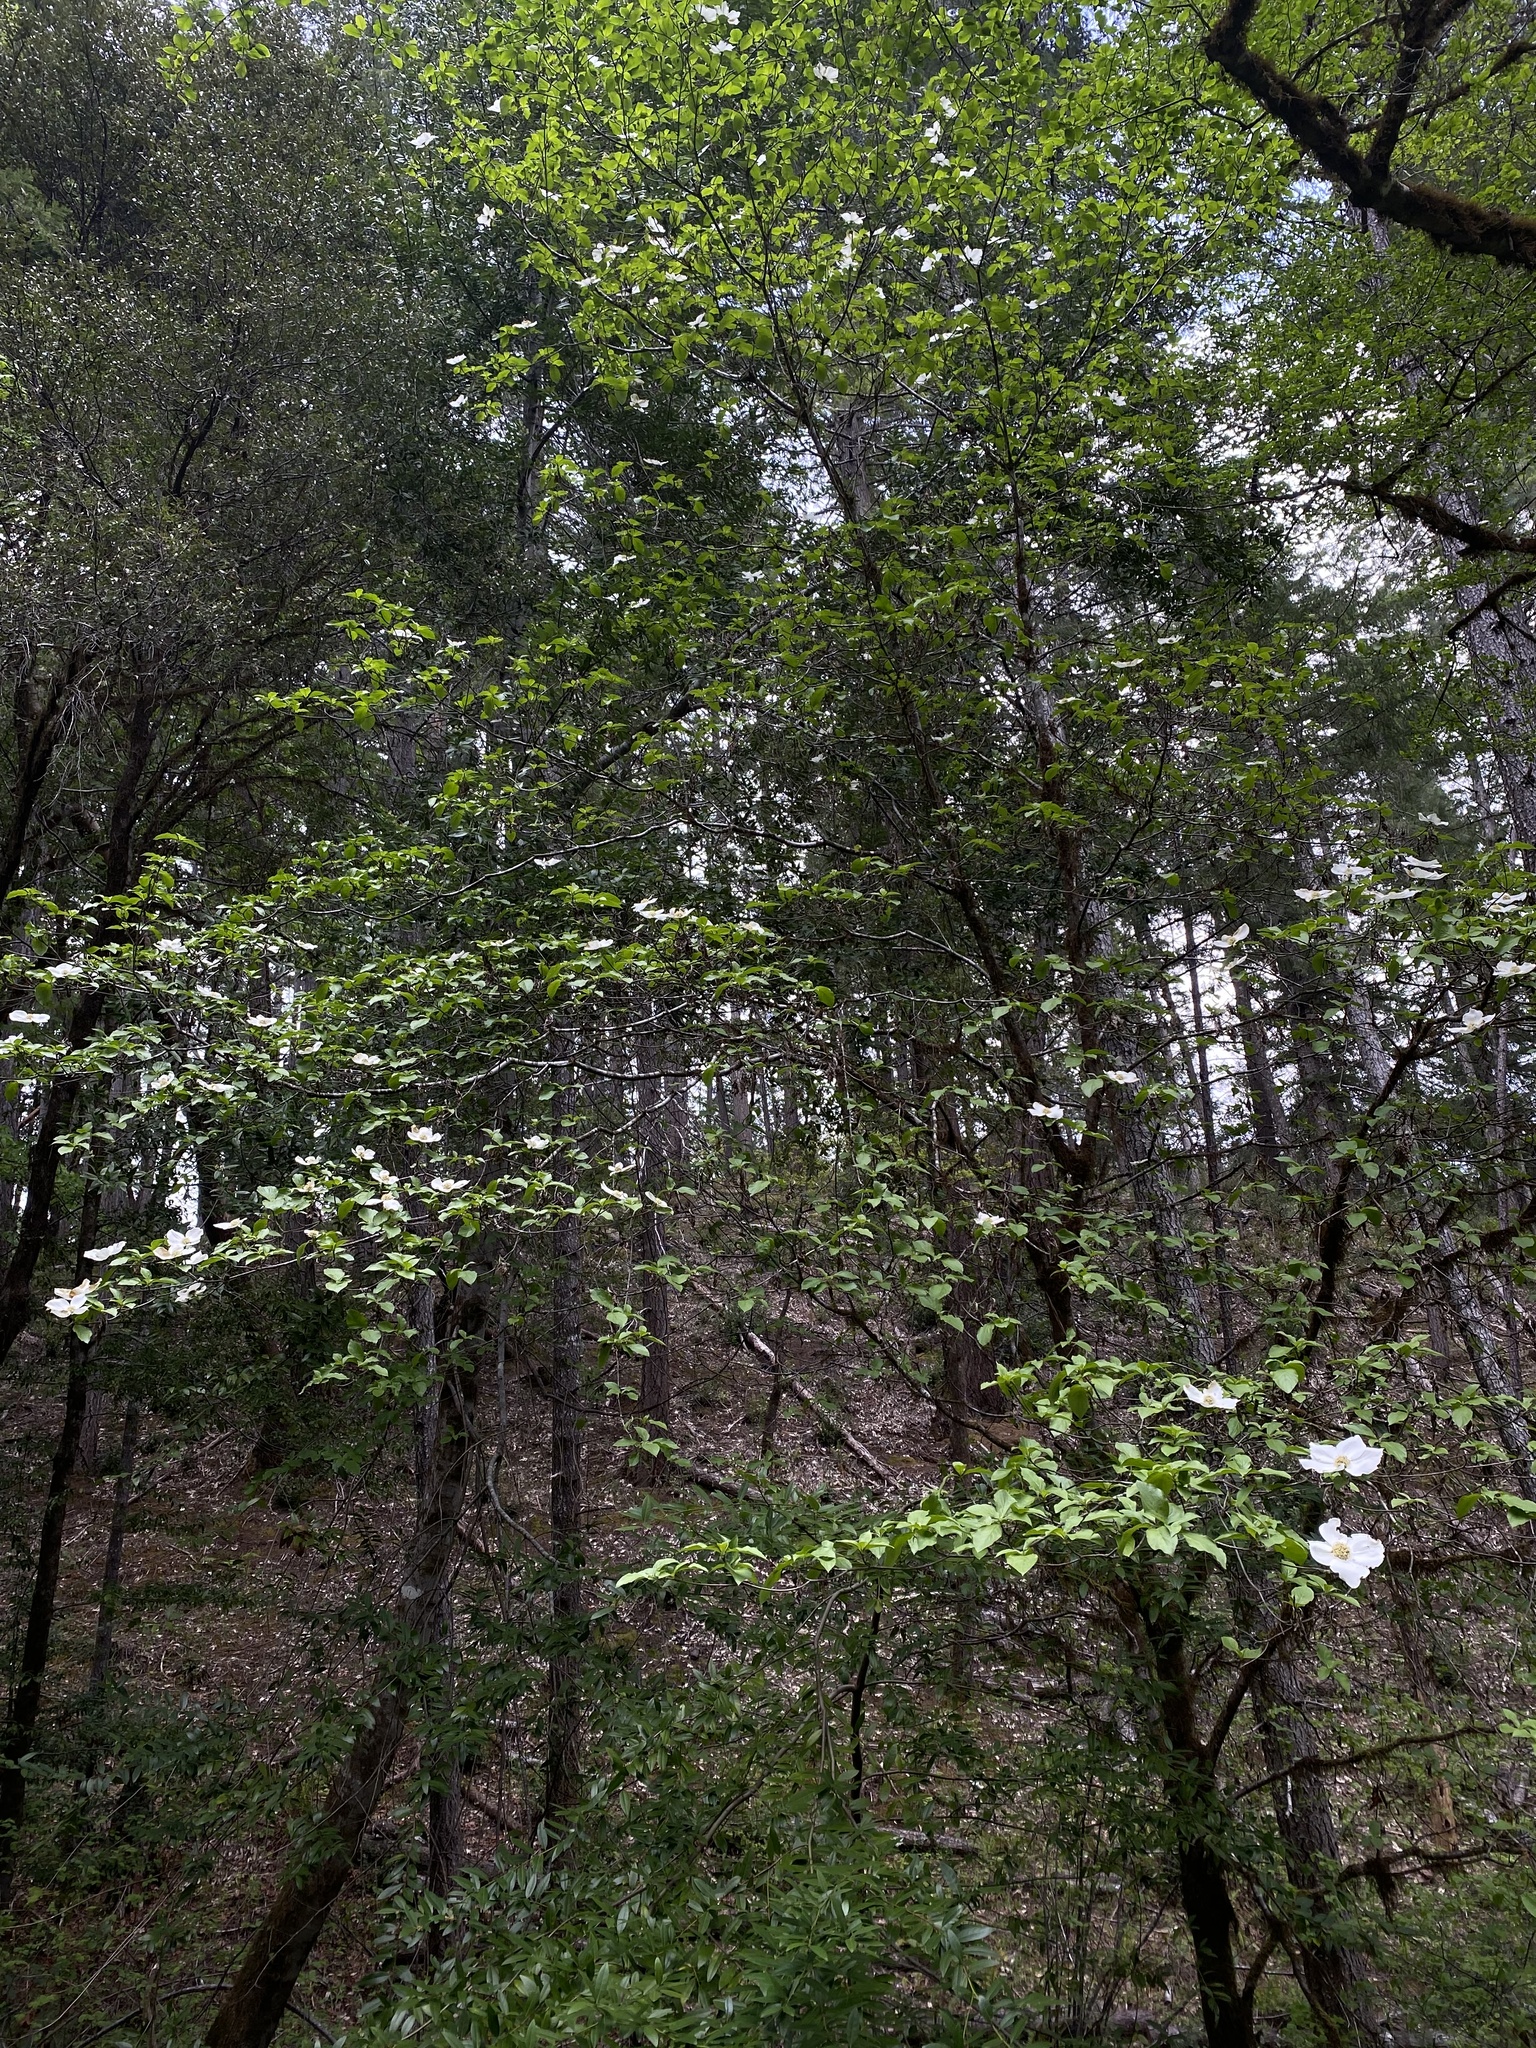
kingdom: Plantae
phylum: Tracheophyta
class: Magnoliopsida
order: Cornales
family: Cornaceae
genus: Cornus
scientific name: Cornus nuttallii
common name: Pacific dogwood
